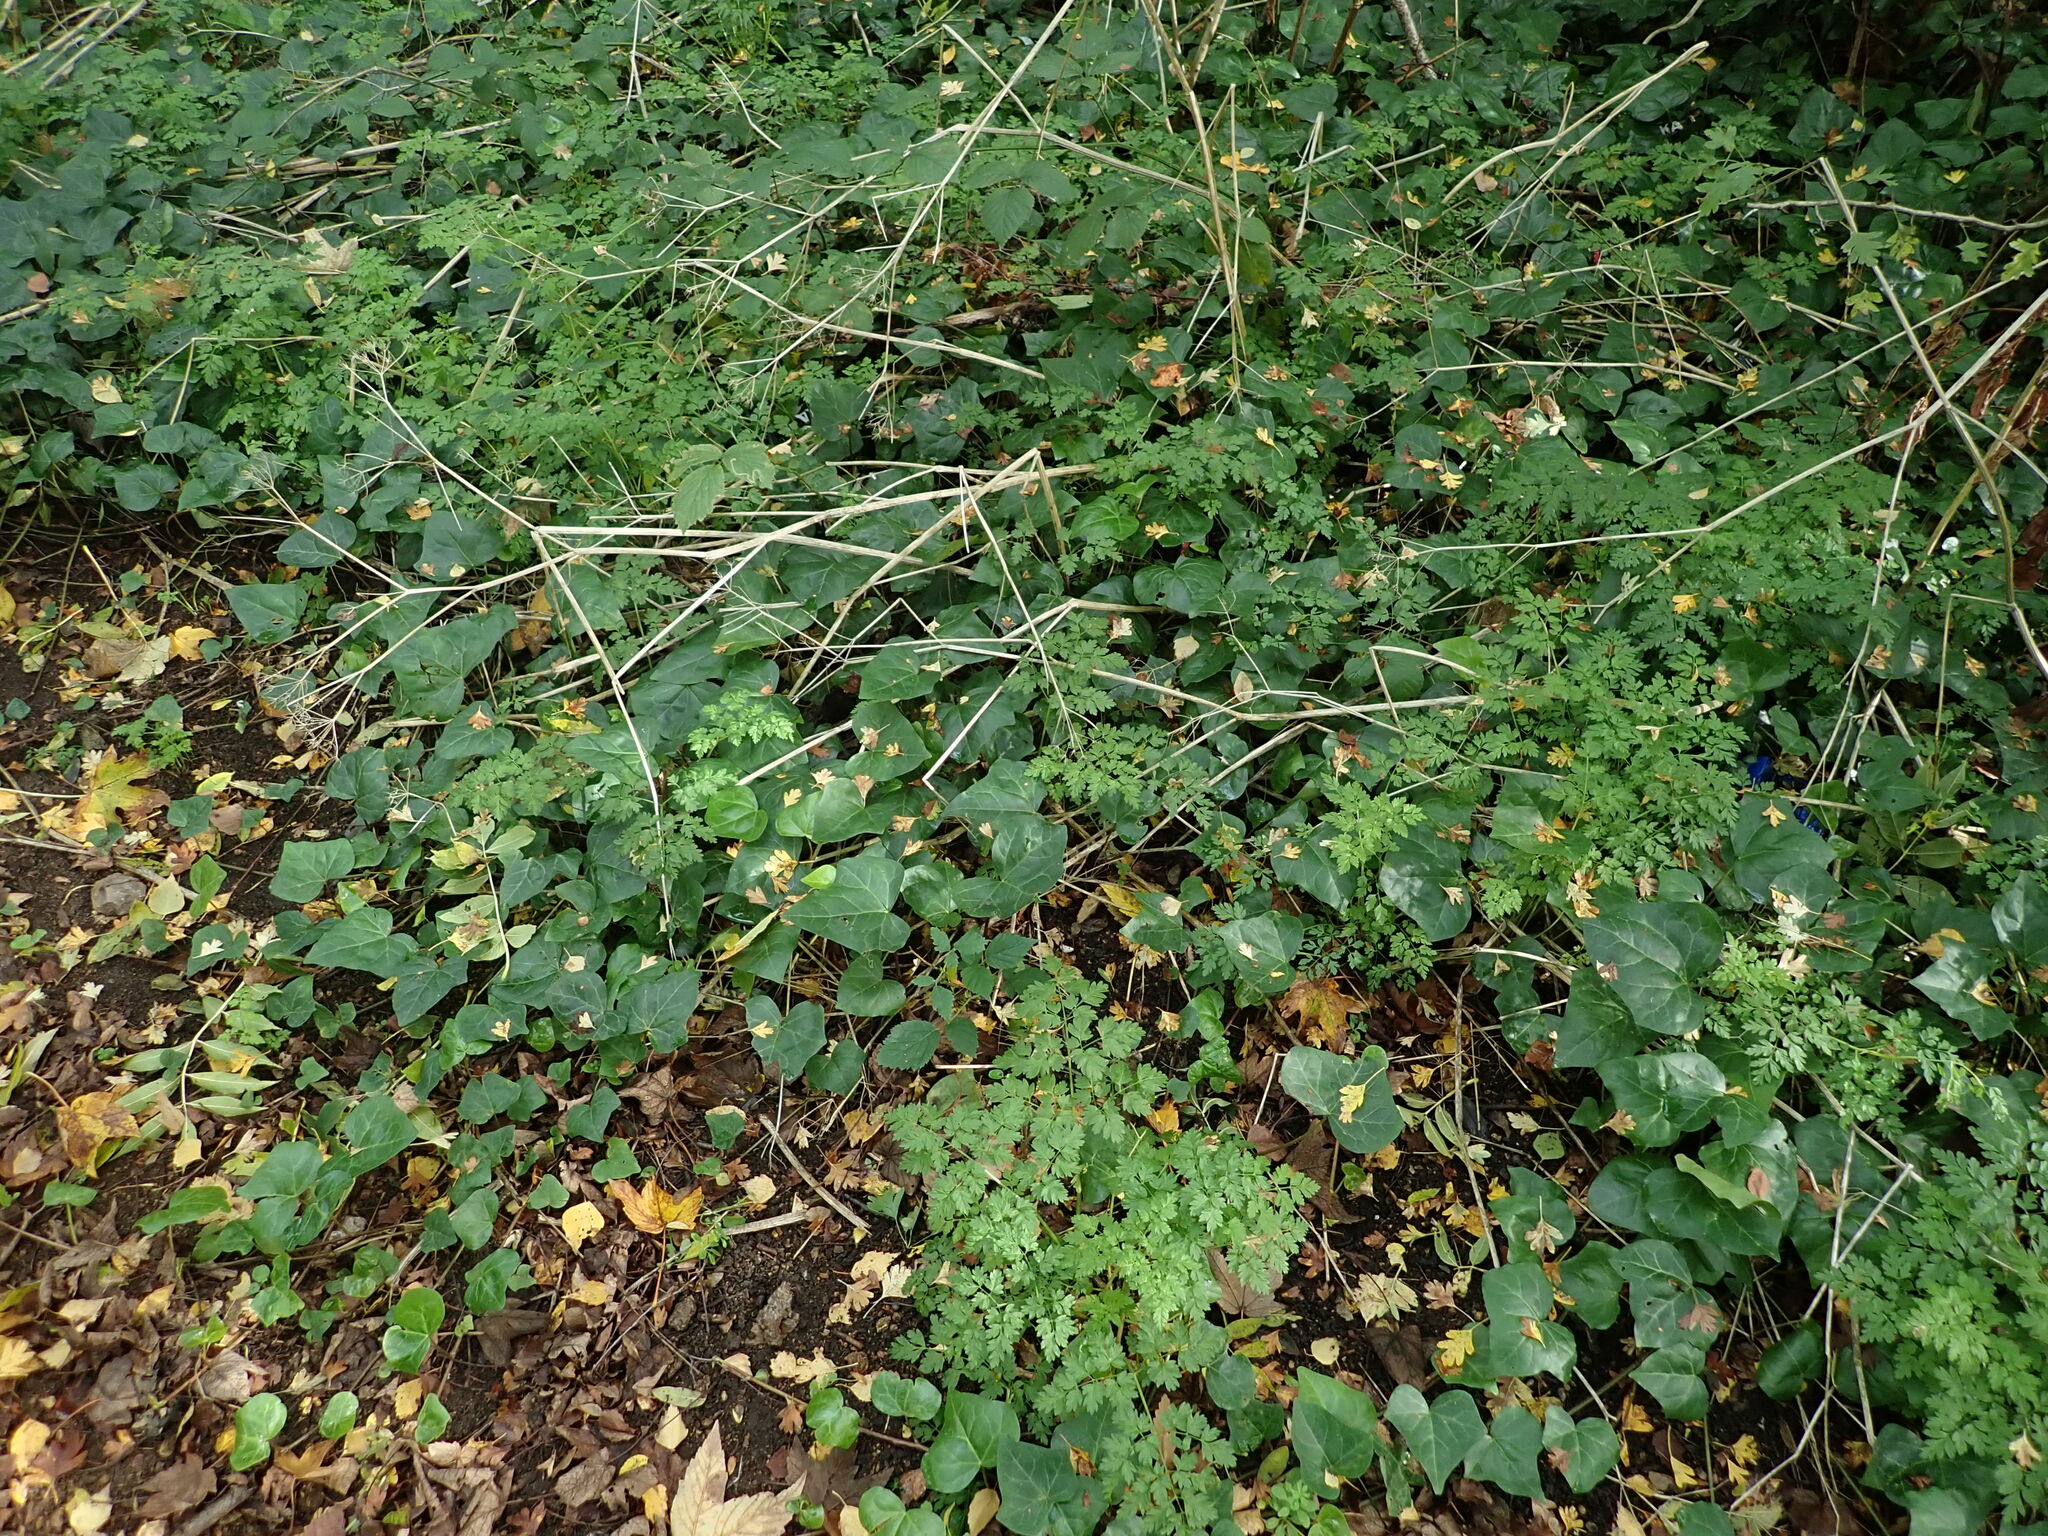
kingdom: Plantae
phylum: Tracheophyta
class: Magnoliopsida
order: Apiales
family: Apiaceae
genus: Anthriscus
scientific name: Anthriscus sylvestris
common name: Cow parsley
